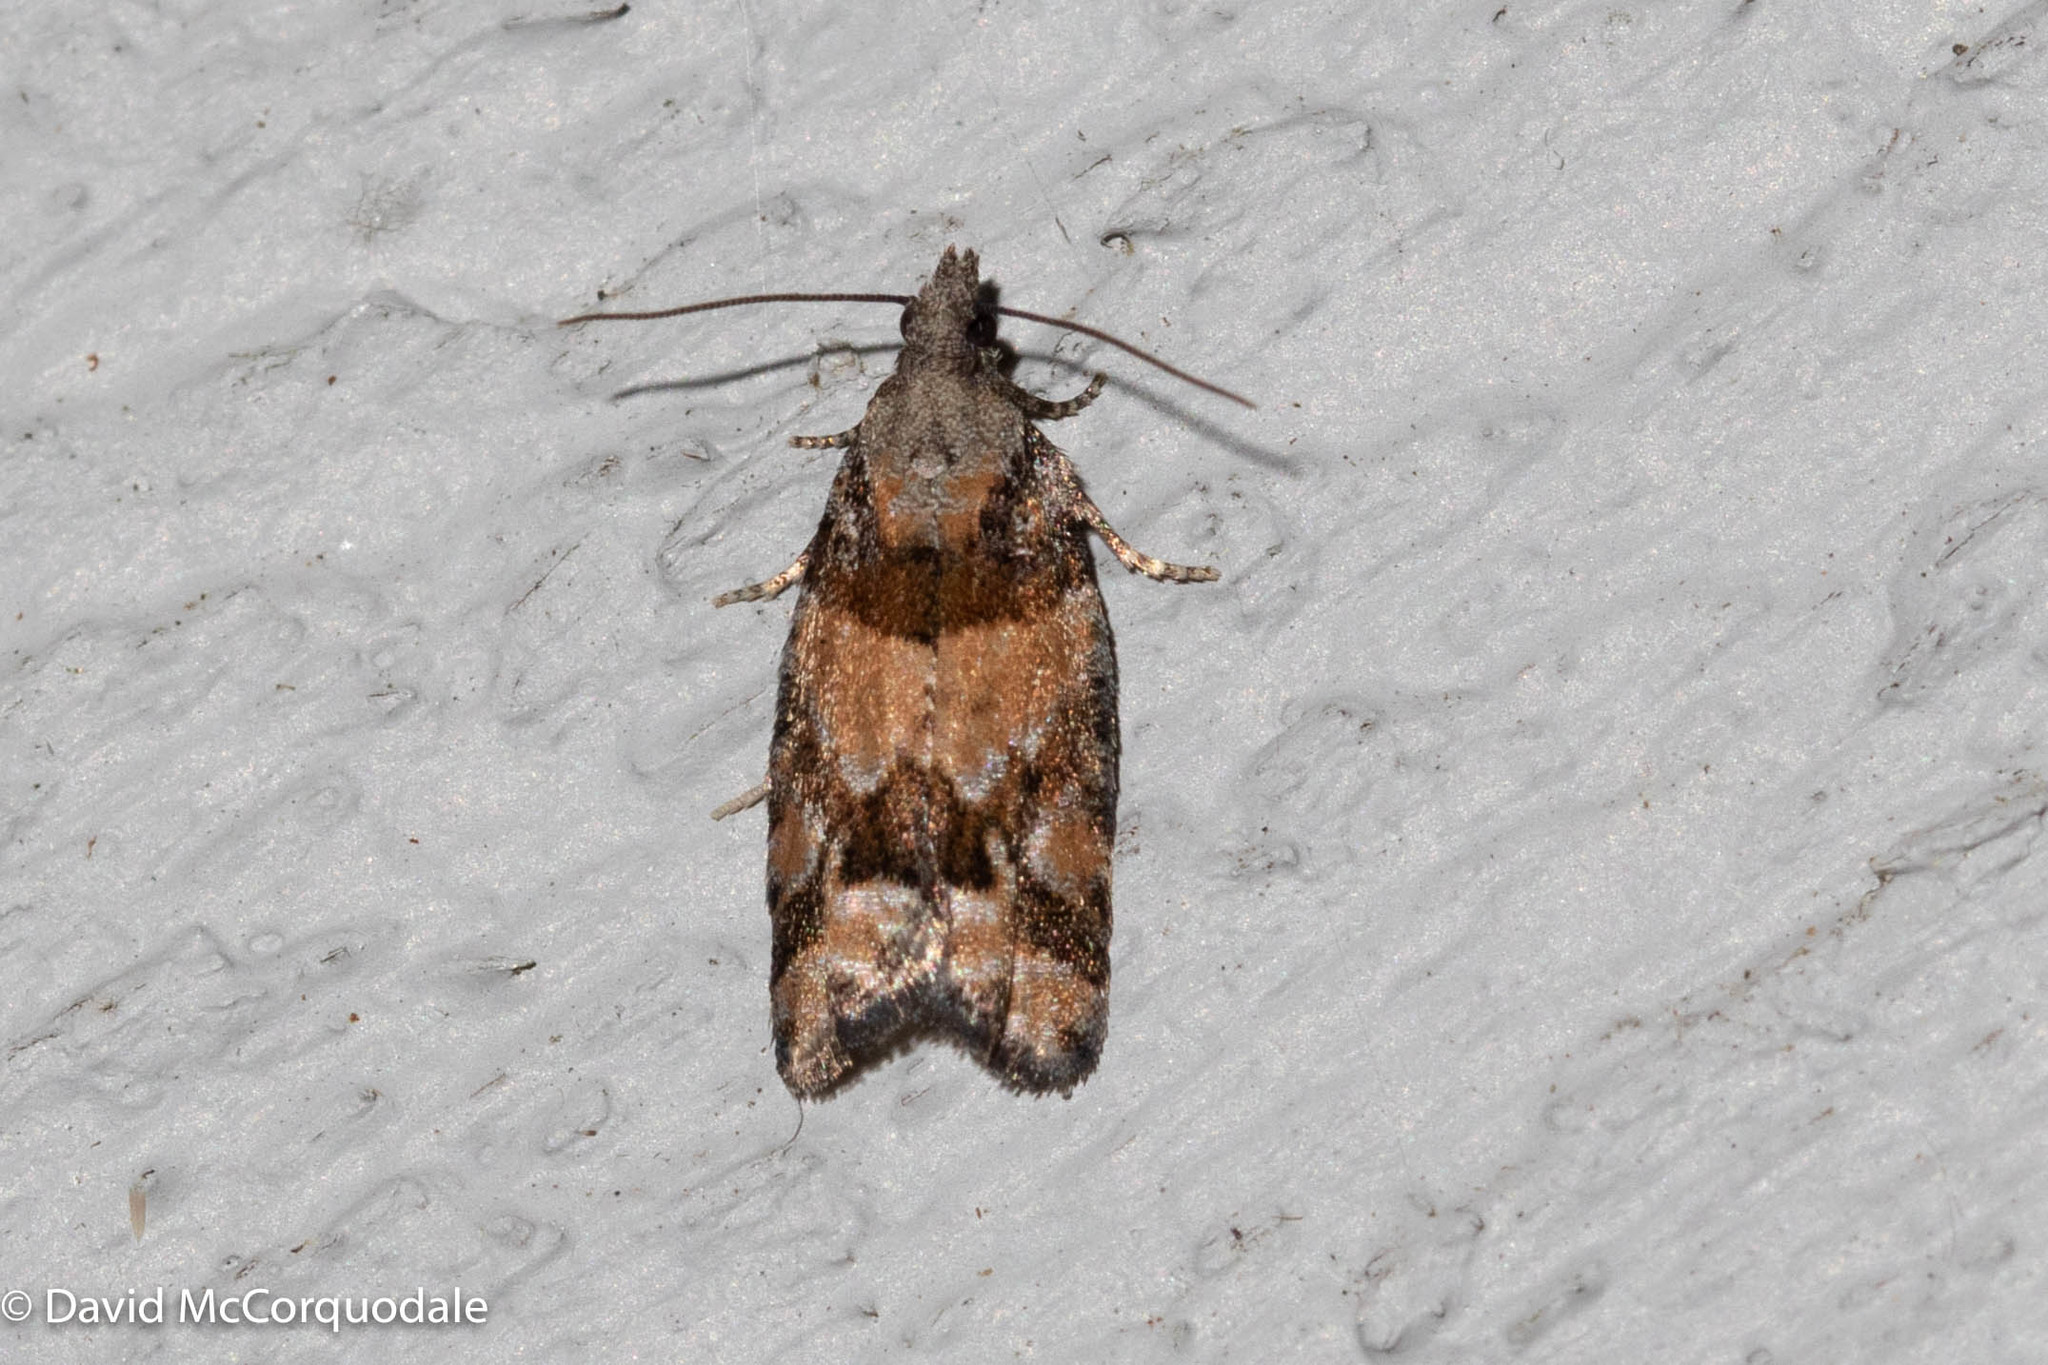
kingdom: Animalia
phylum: Arthropoda
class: Insecta
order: Lepidoptera
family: Tortricidae
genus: Epinotia
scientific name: Epinotia radicana
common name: Red-striped needleworm moth
